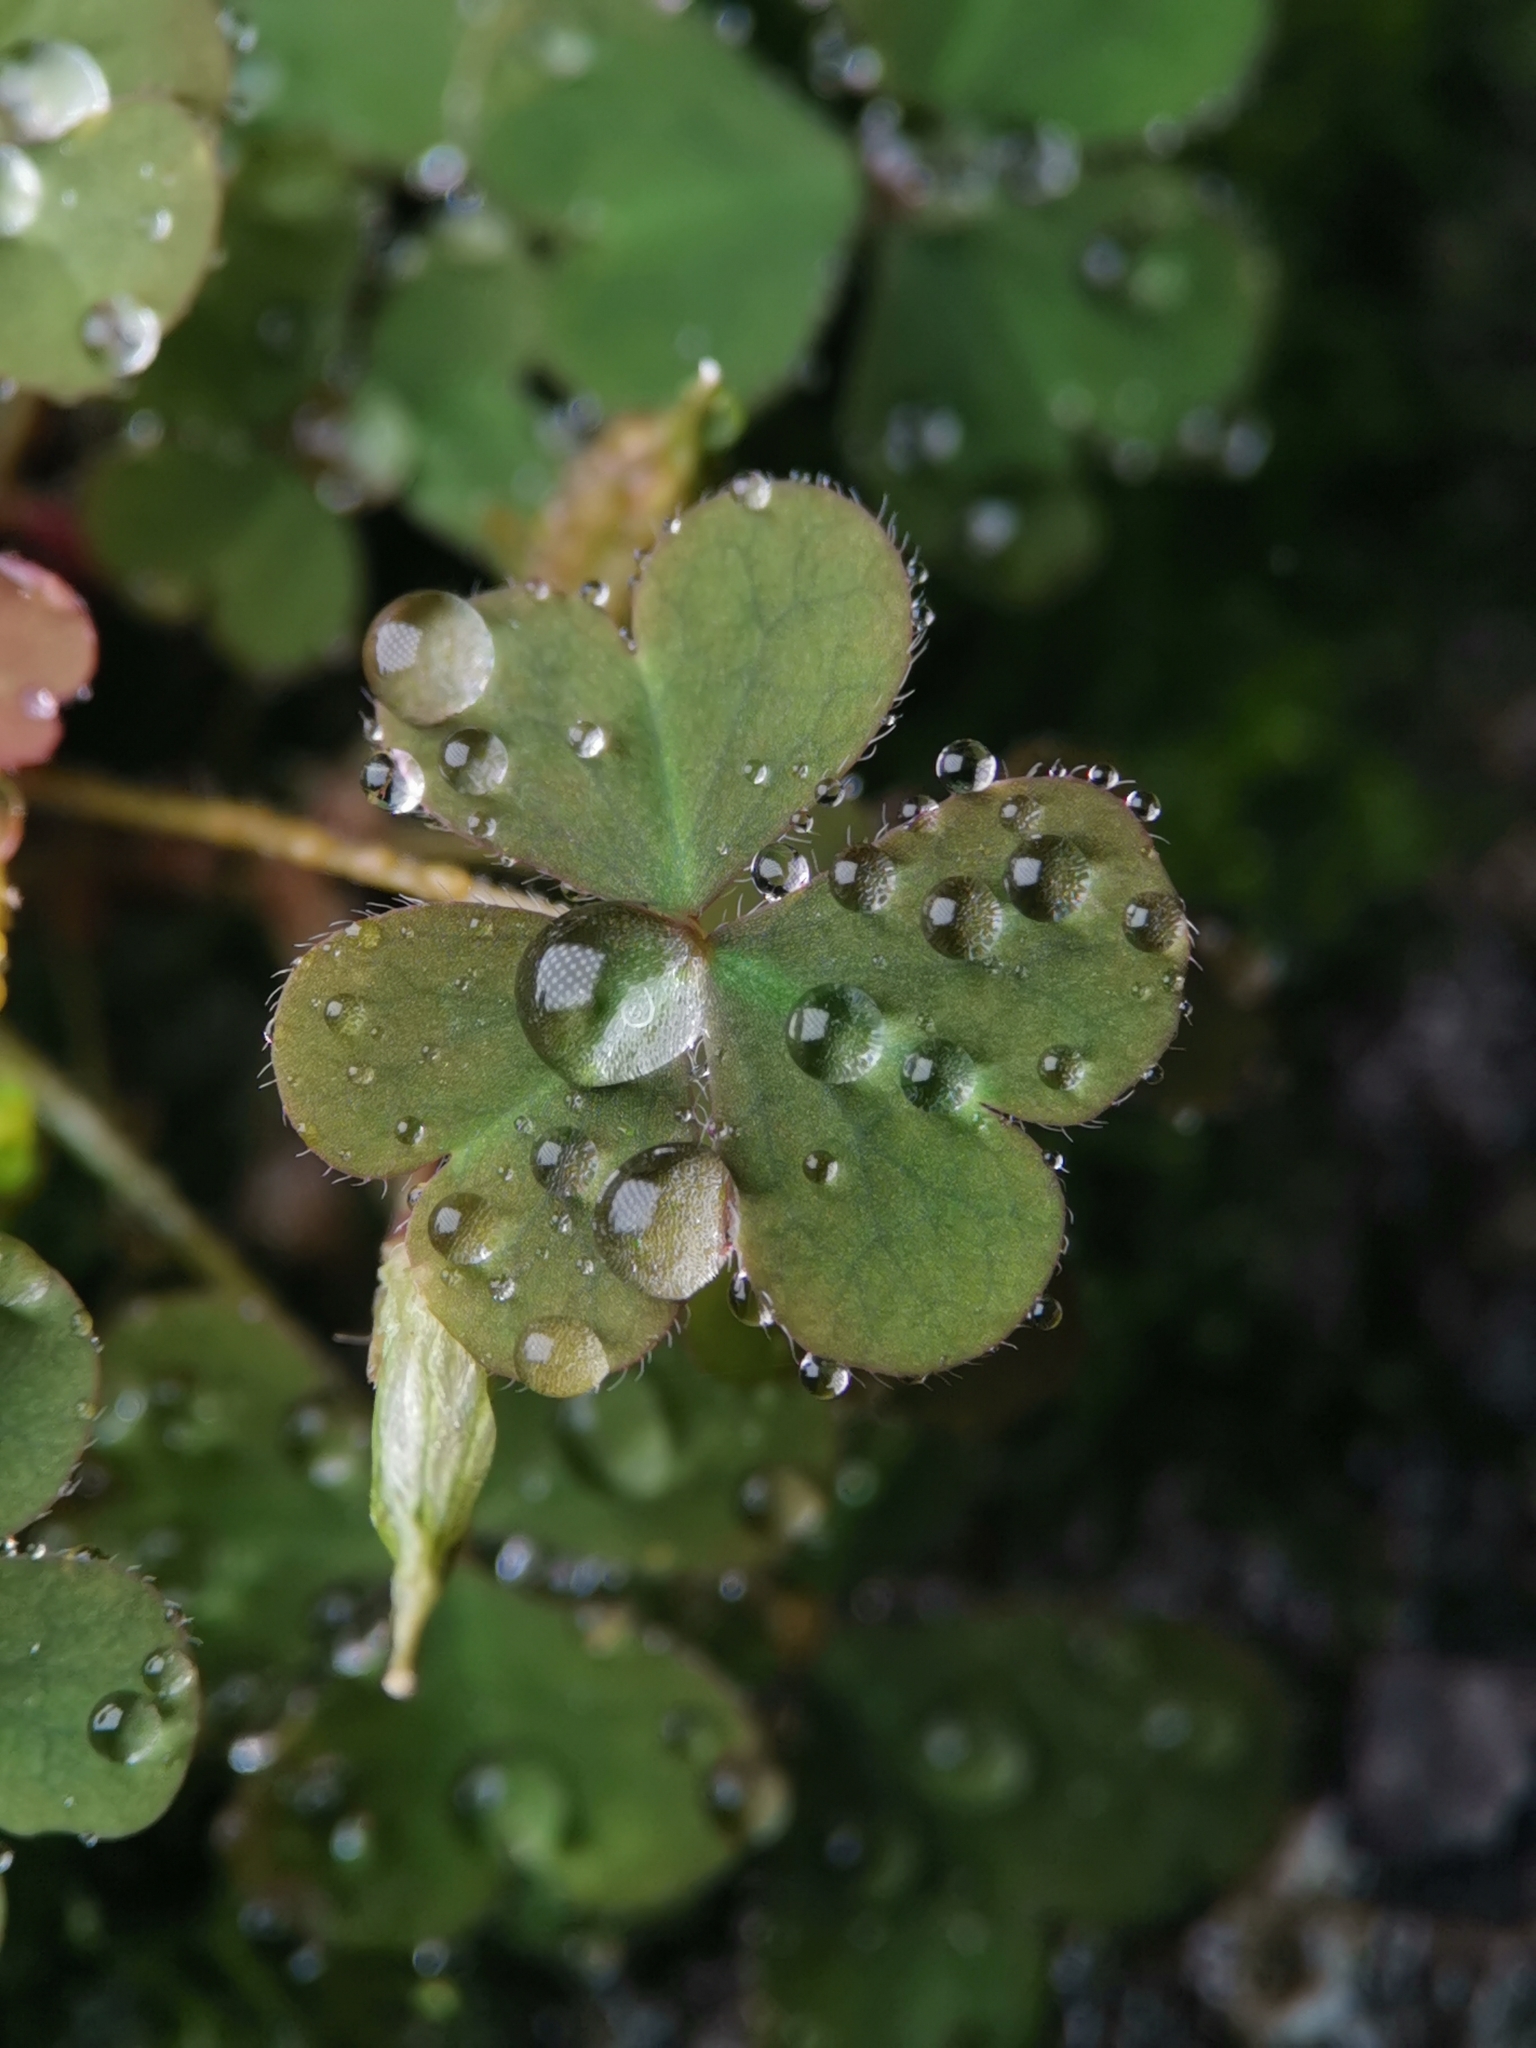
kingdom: Plantae
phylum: Tracheophyta
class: Magnoliopsida
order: Oxalidales
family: Oxalidaceae
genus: Oxalis
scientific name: Oxalis corniculata
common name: Procumbent yellow-sorrel
